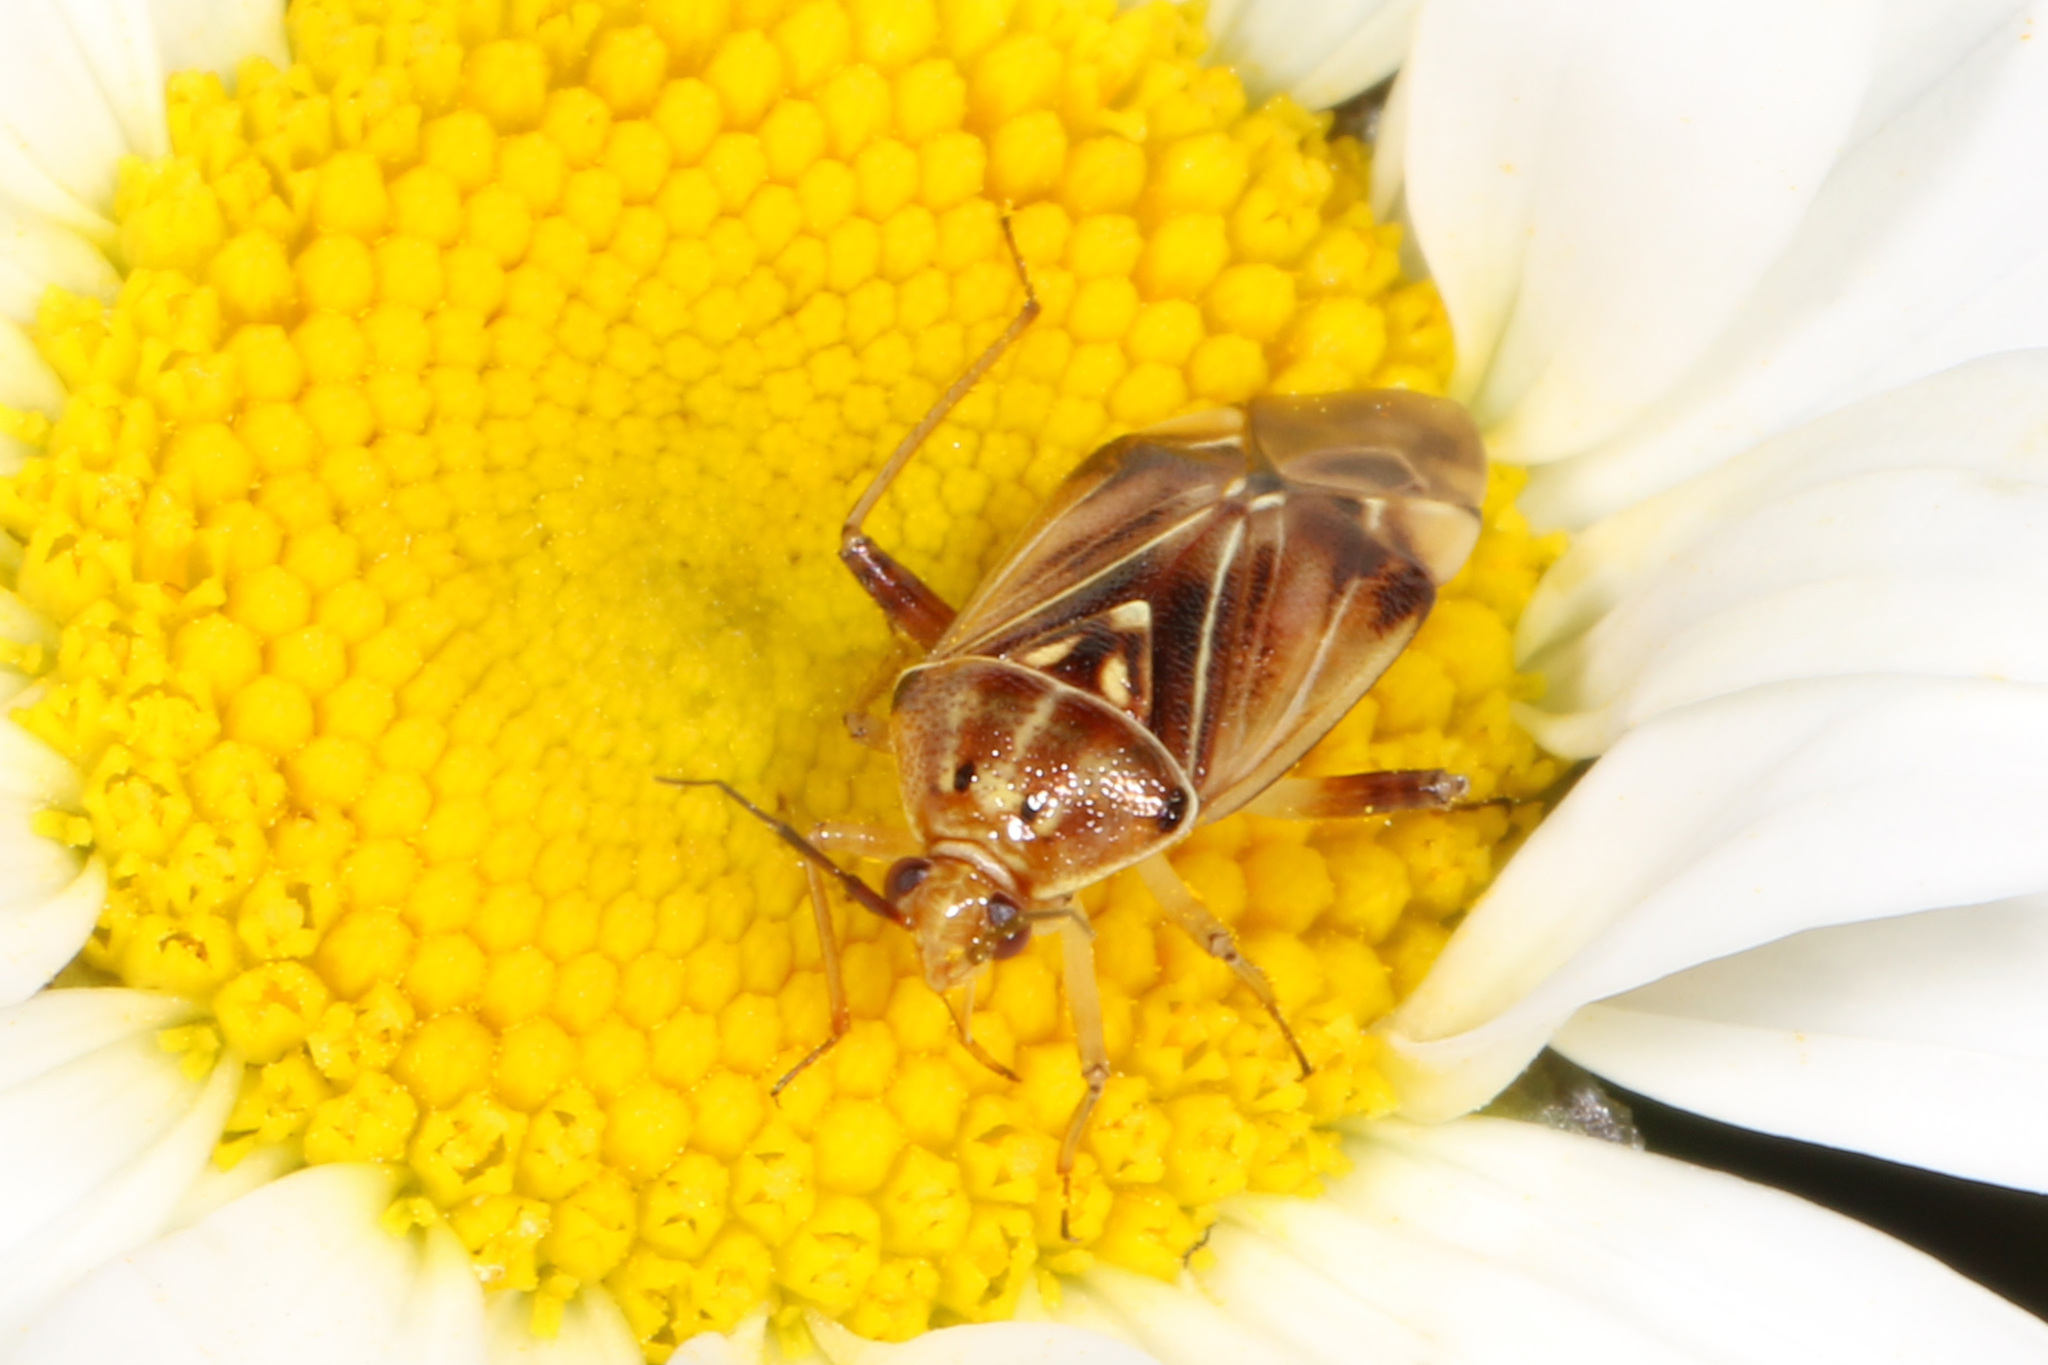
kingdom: Animalia
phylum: Arthropoda
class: Insecta
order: Hemiptera
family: Miridae
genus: Lygus
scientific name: Lygus lineolaris
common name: North american tarnished plant bug
